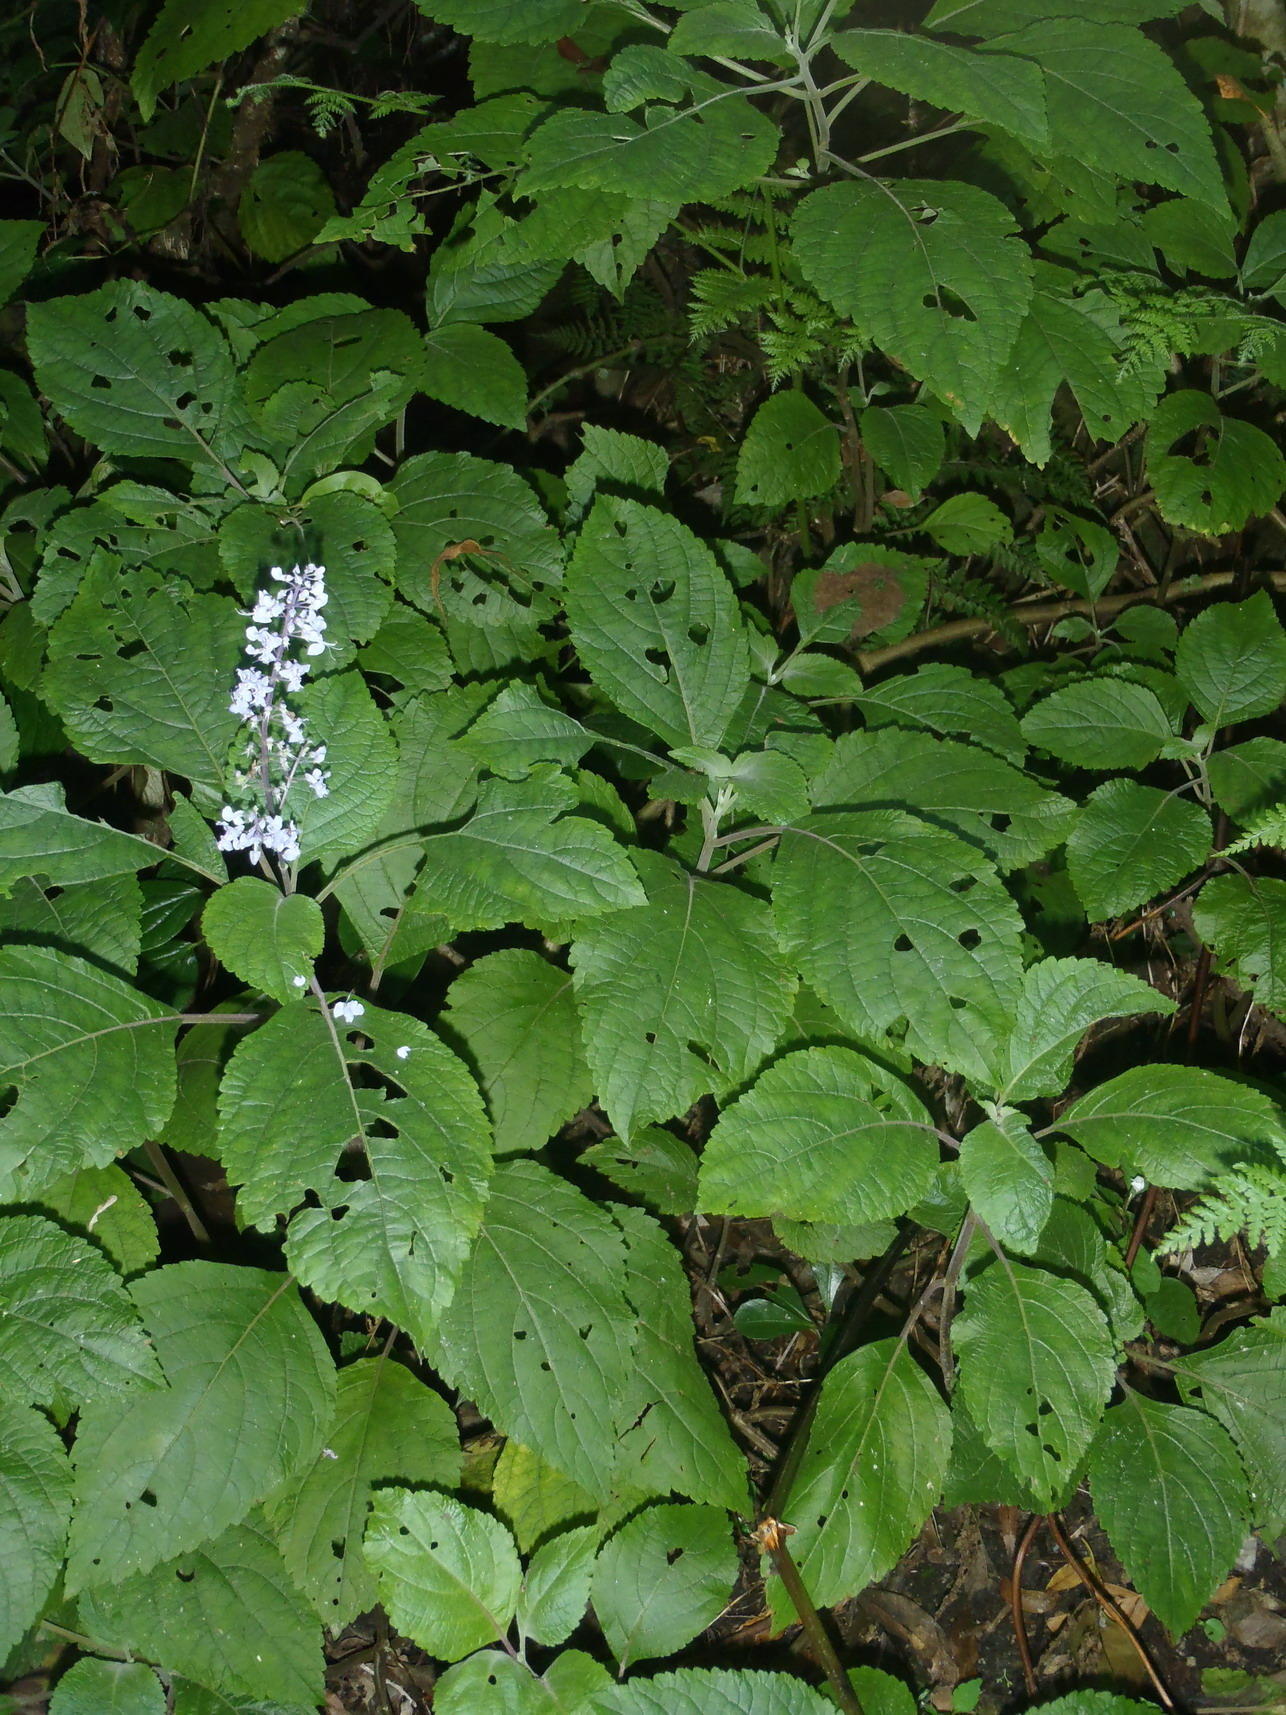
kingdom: Plantae
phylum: Tracheophyta
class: Magnoliopsida
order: Lamiales
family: Lamiaceae
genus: Plectranthus
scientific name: Plectranthus fruticosus
